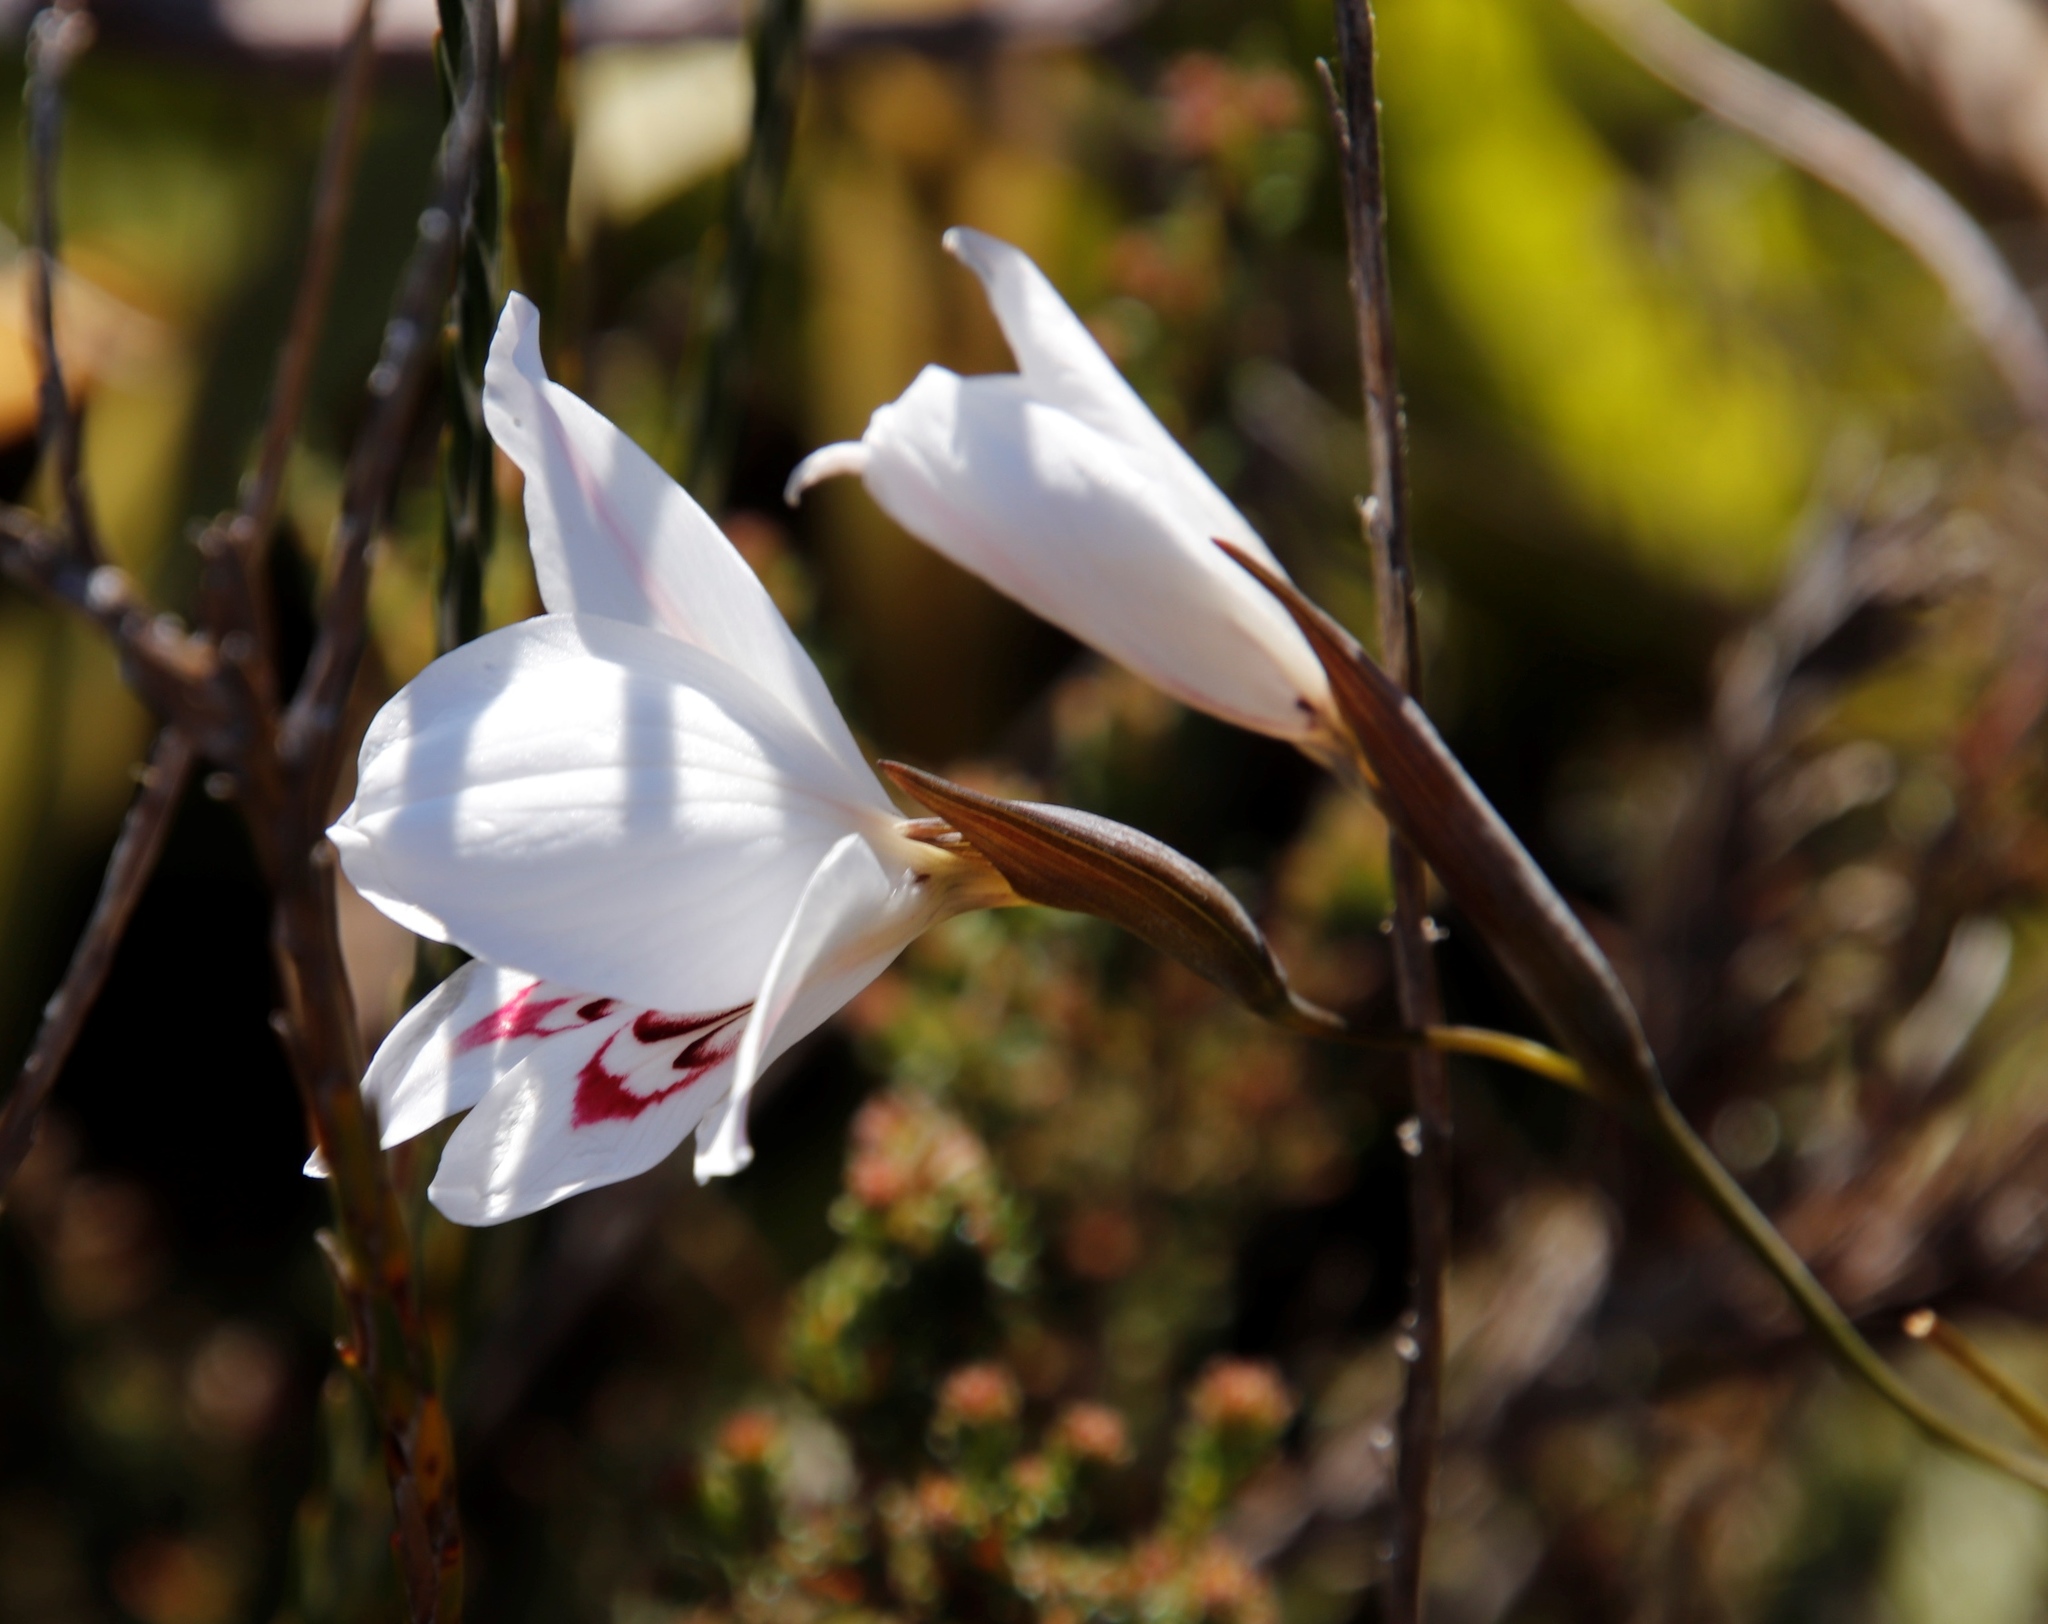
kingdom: Plantae
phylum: Tracheophyta
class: Liliopsida
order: Asparagales
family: Iridaceae
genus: Gladiolus
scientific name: Gladiolus debilis
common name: Painted-lady
